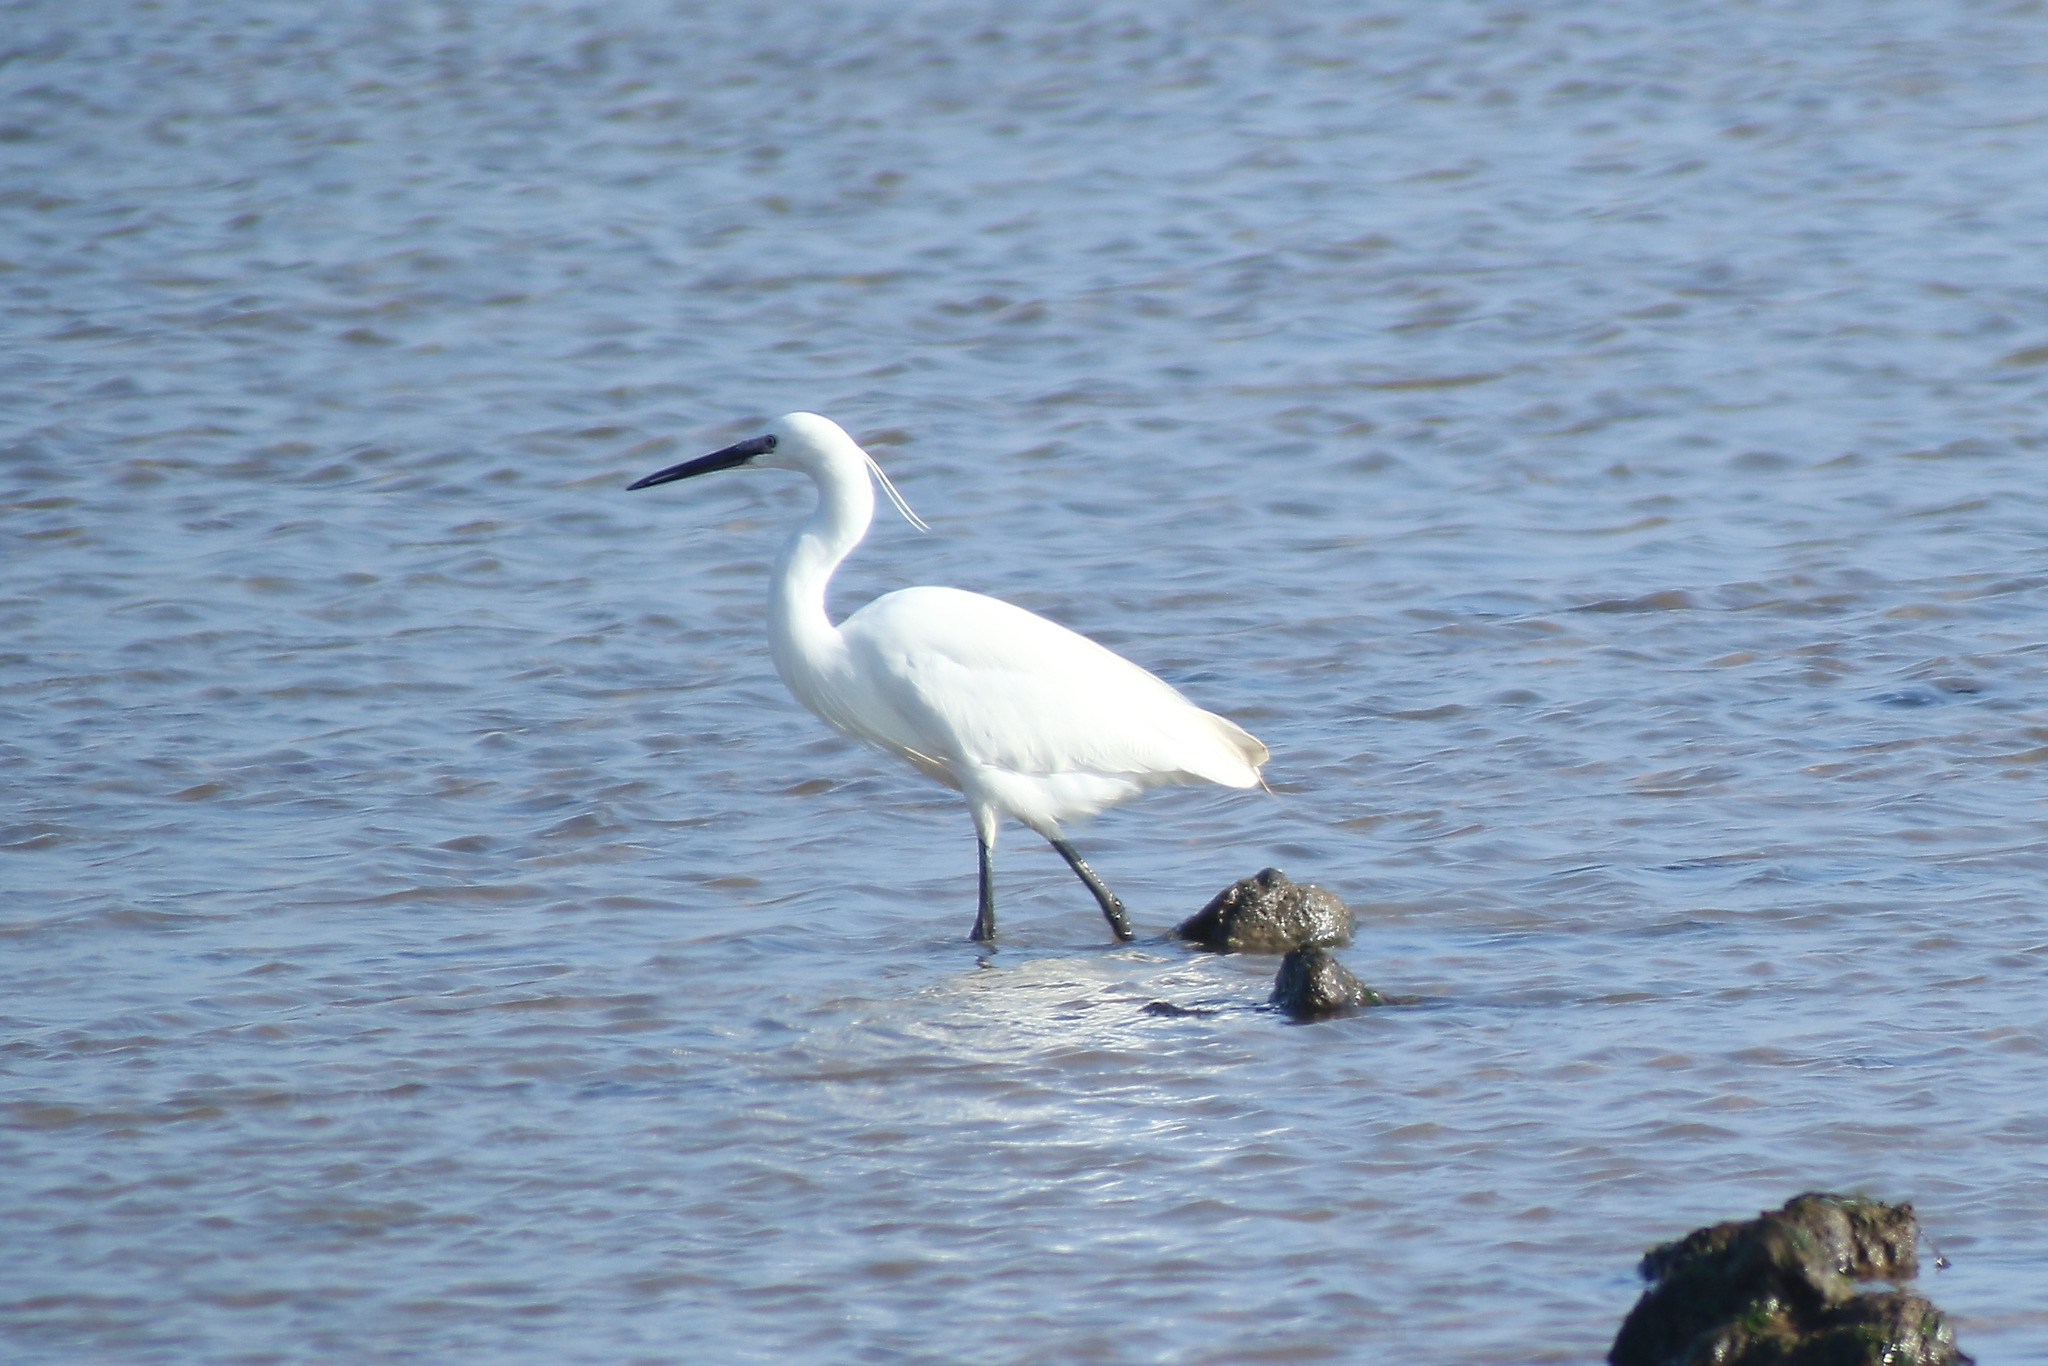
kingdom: Animalia
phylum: Chordata
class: Aves
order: Pelecaniformes
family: Ardeidae
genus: Egretta
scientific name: Egretta garzetta
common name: Little egret
